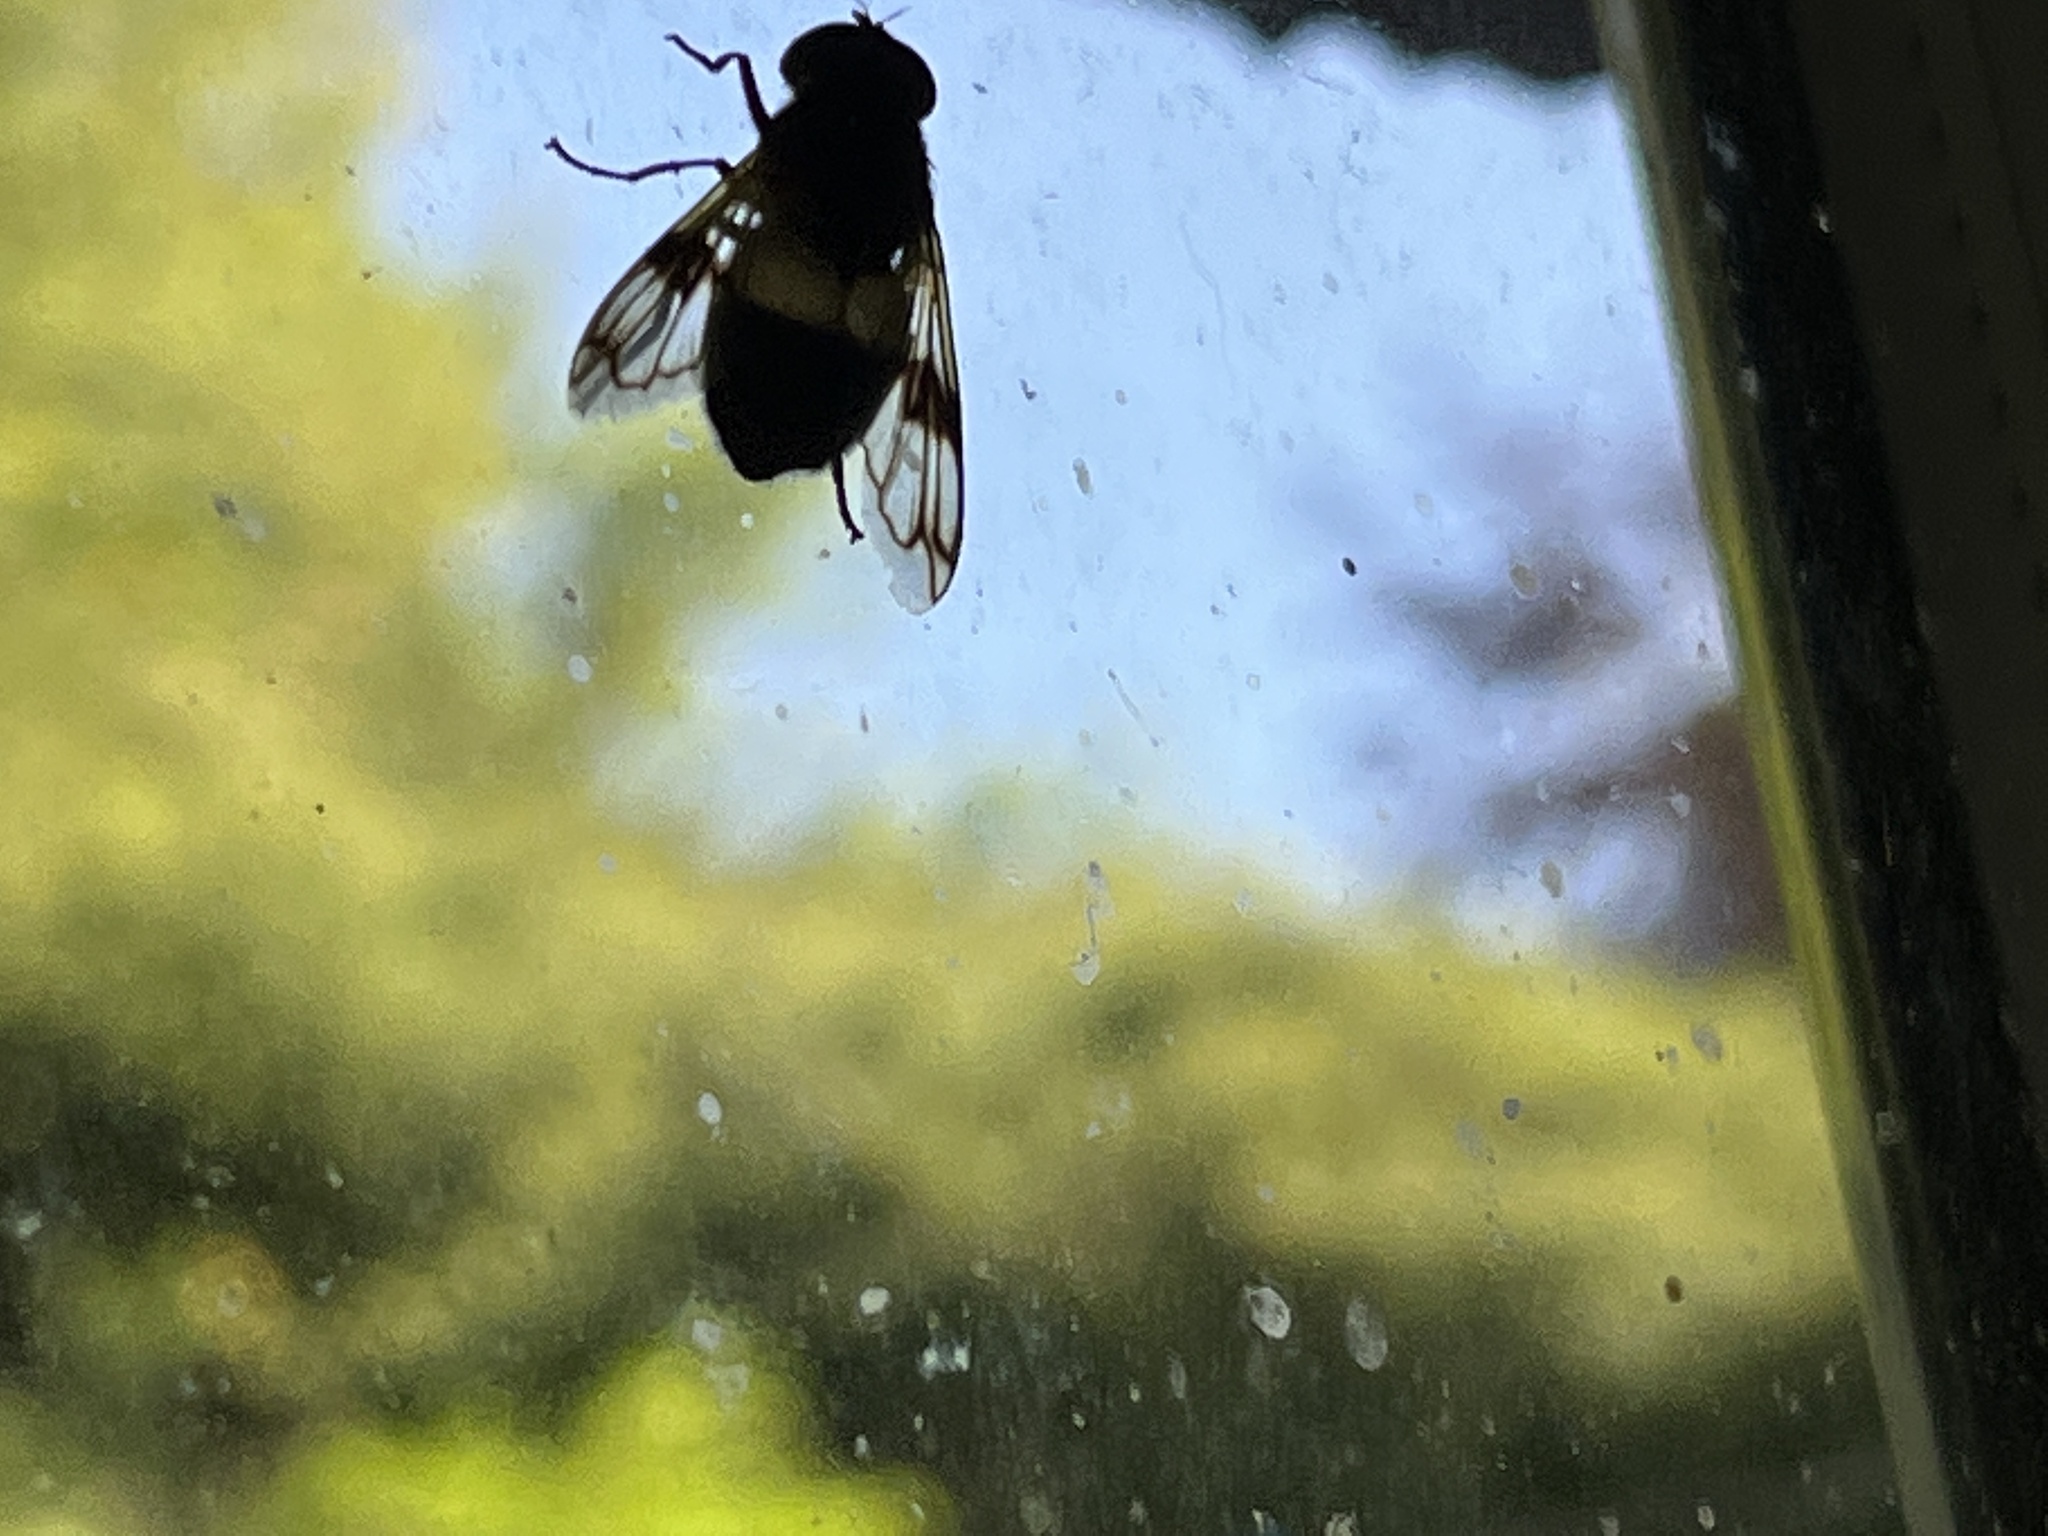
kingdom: Animalia
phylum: Arthropoda
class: Insecta
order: Diptera
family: Syrphidae
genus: Volucella
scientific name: Volucella pellucens
